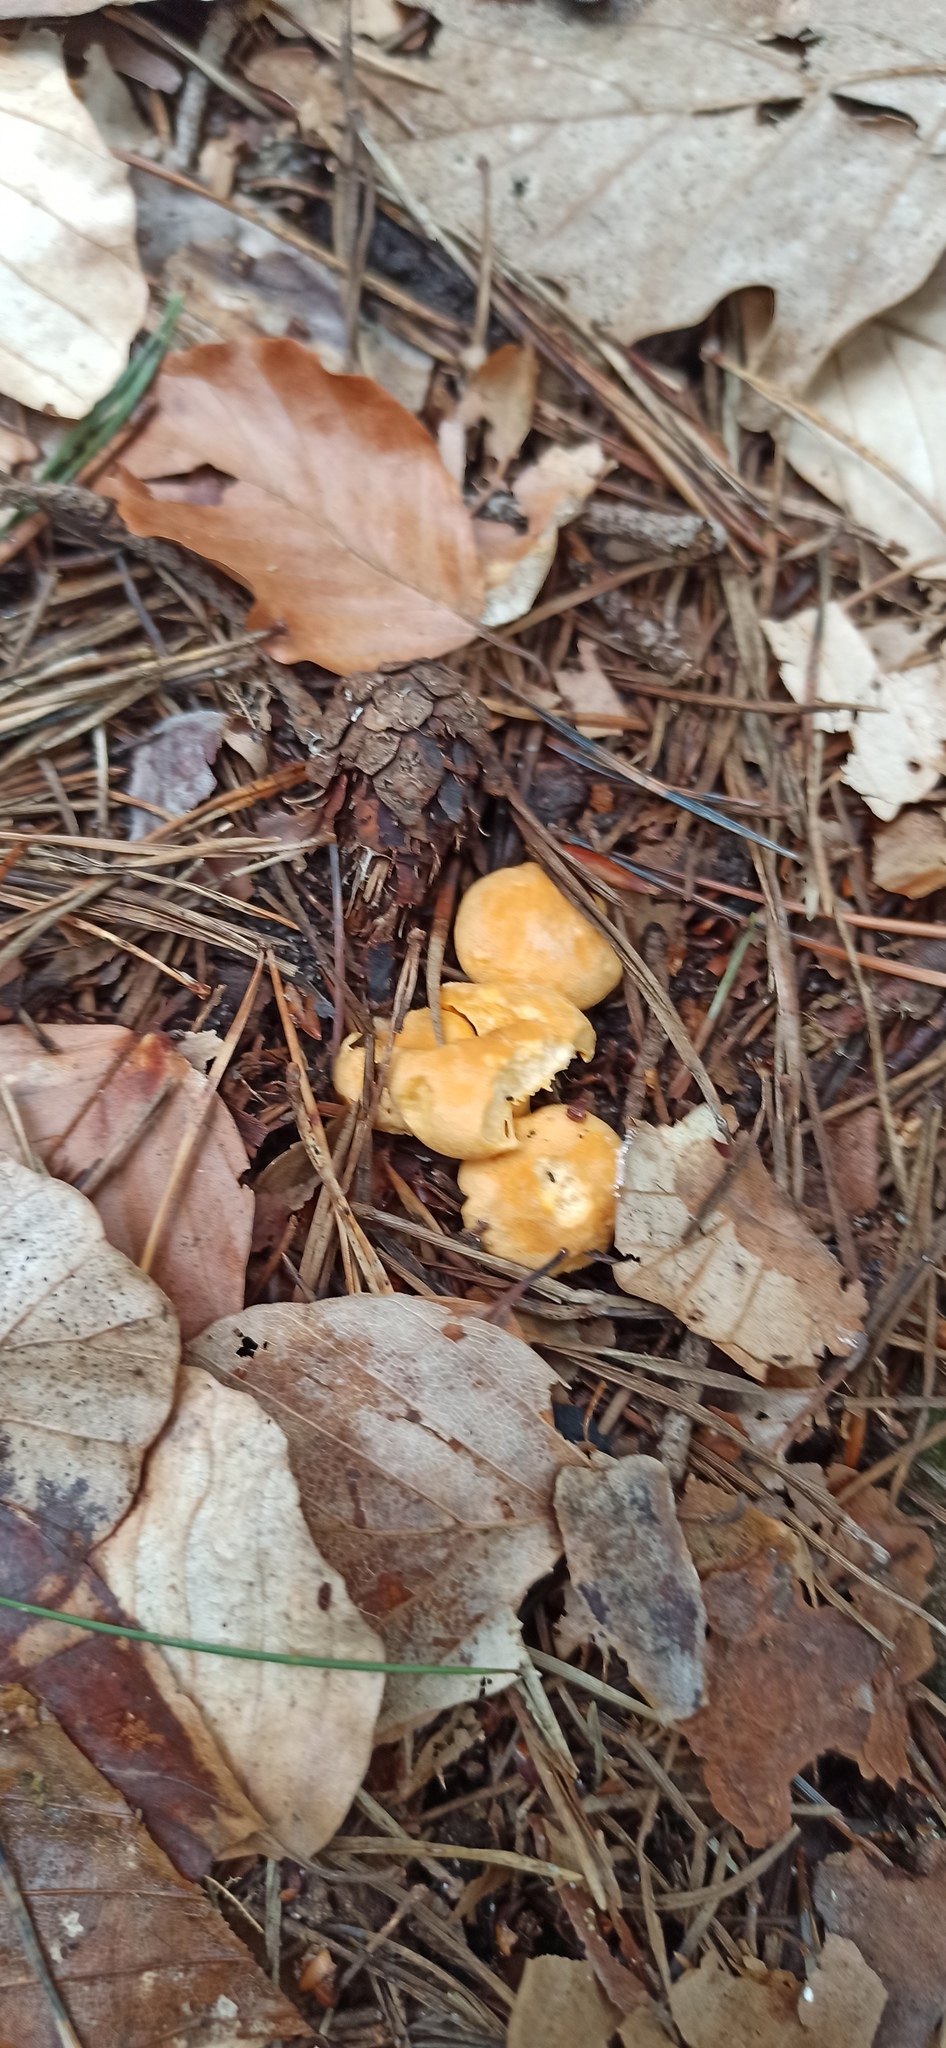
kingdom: Fungi
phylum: Basidiomycota
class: Agaricomycetes
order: Cantharellales
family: Hydnaceae
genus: Cantharellus
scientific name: Cantharellus cibarius
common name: Chanterelle
